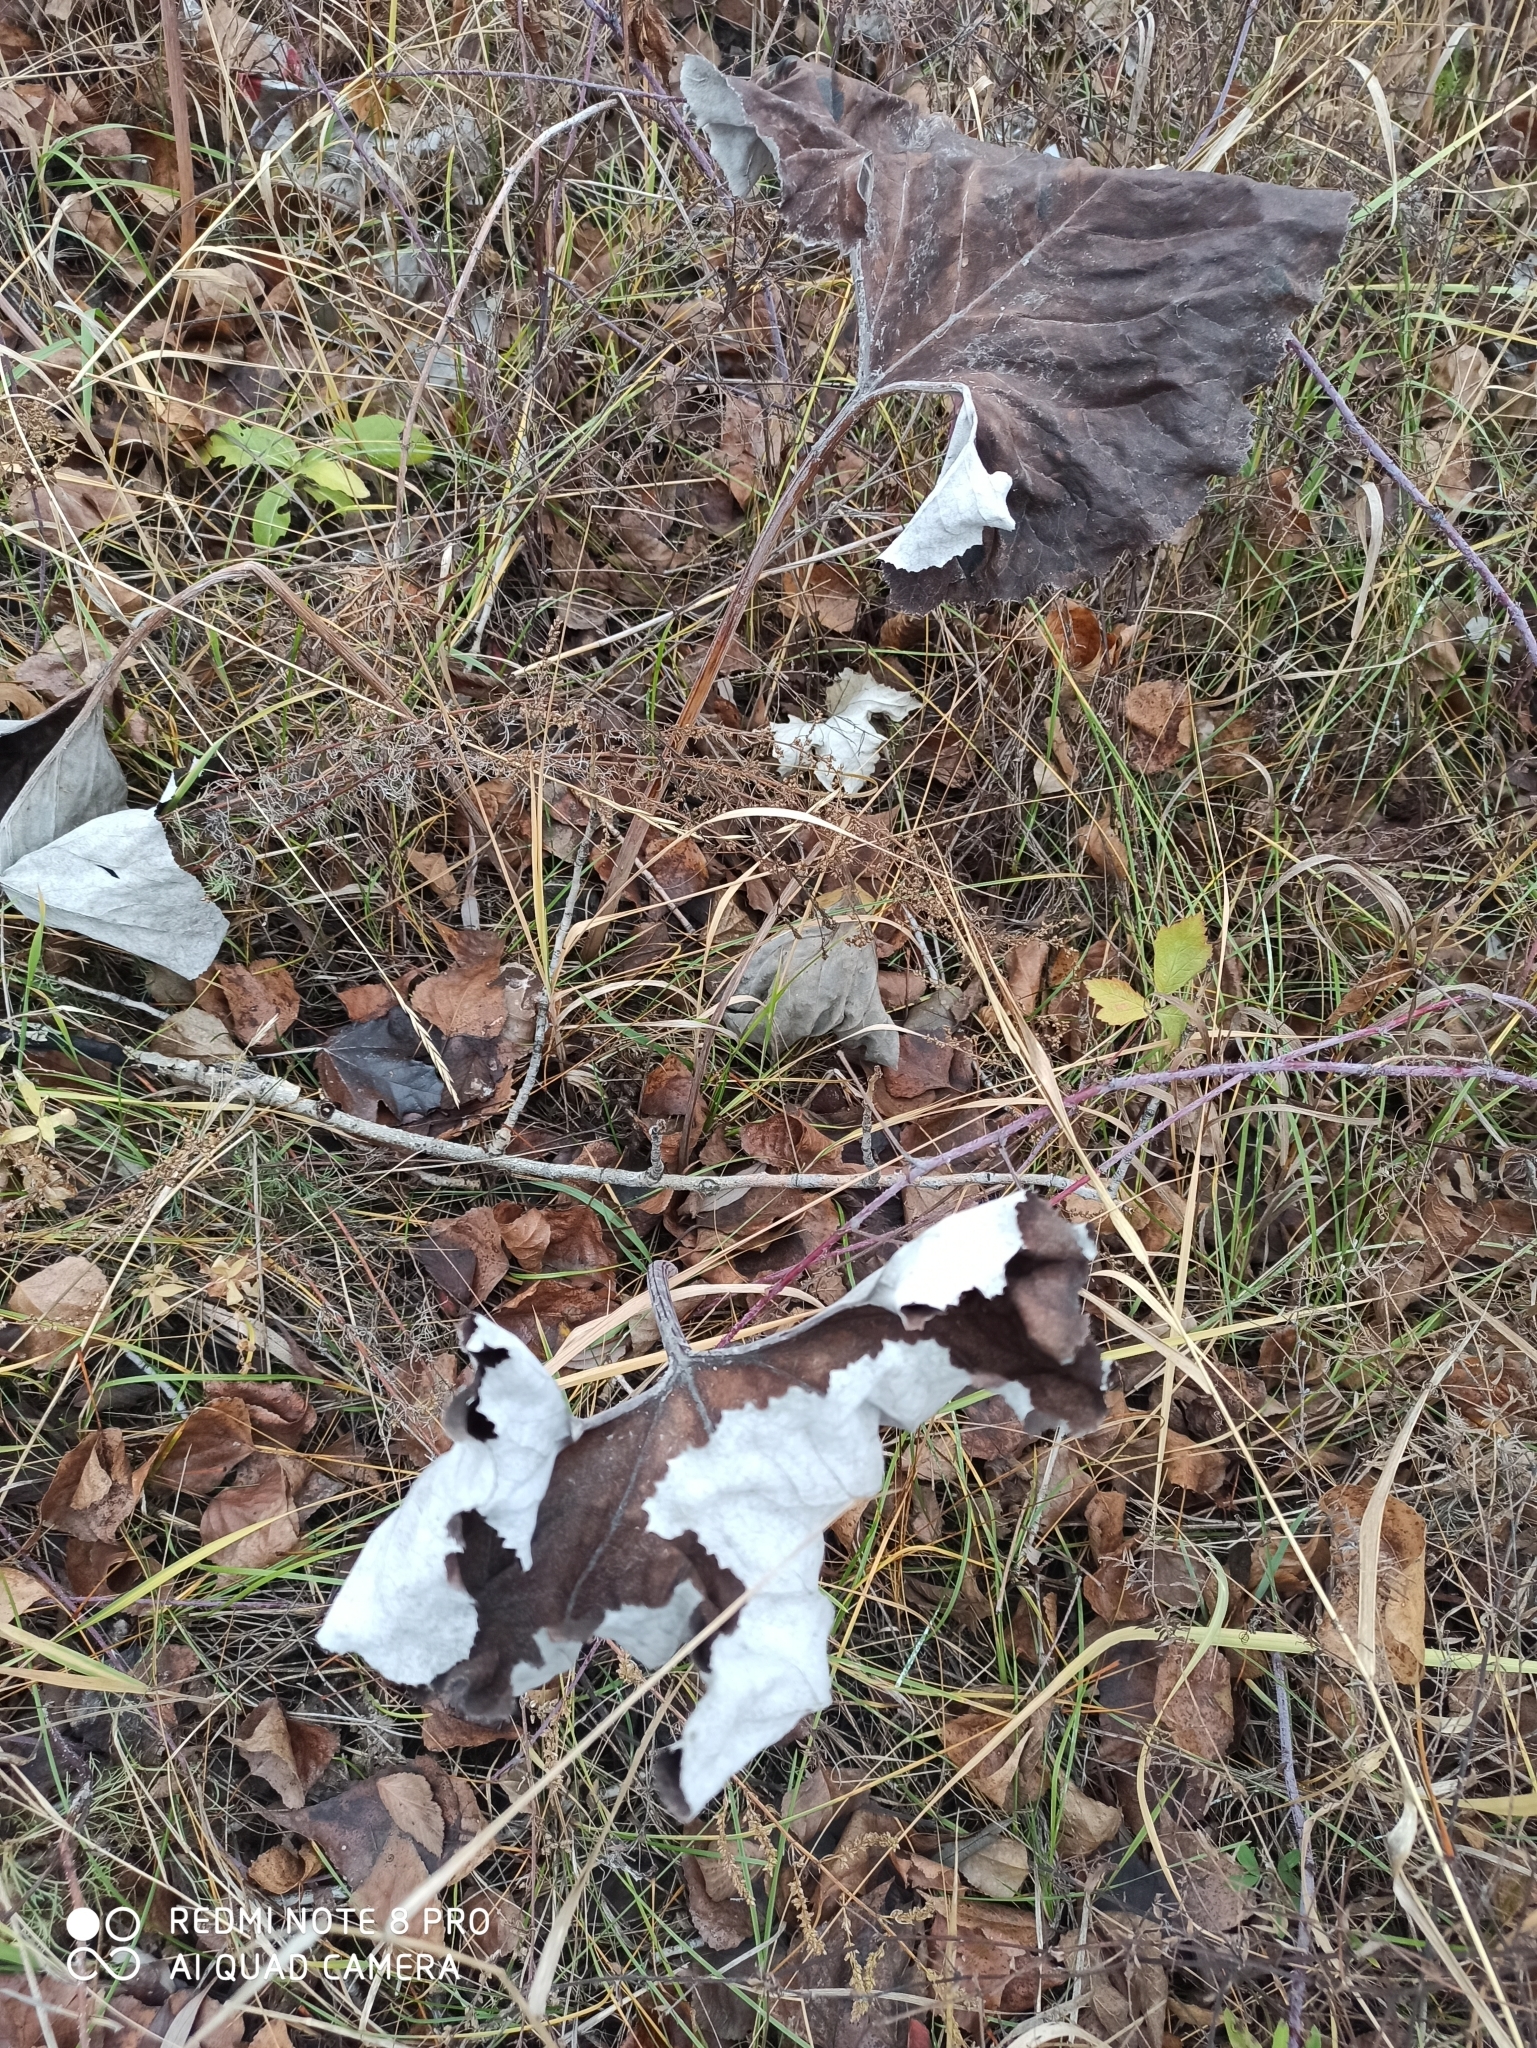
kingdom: Plantae
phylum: Tracheophyta
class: Magnoliopsida
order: Asterales
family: Asteraceae
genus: Petasites
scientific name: Petasites spurius
